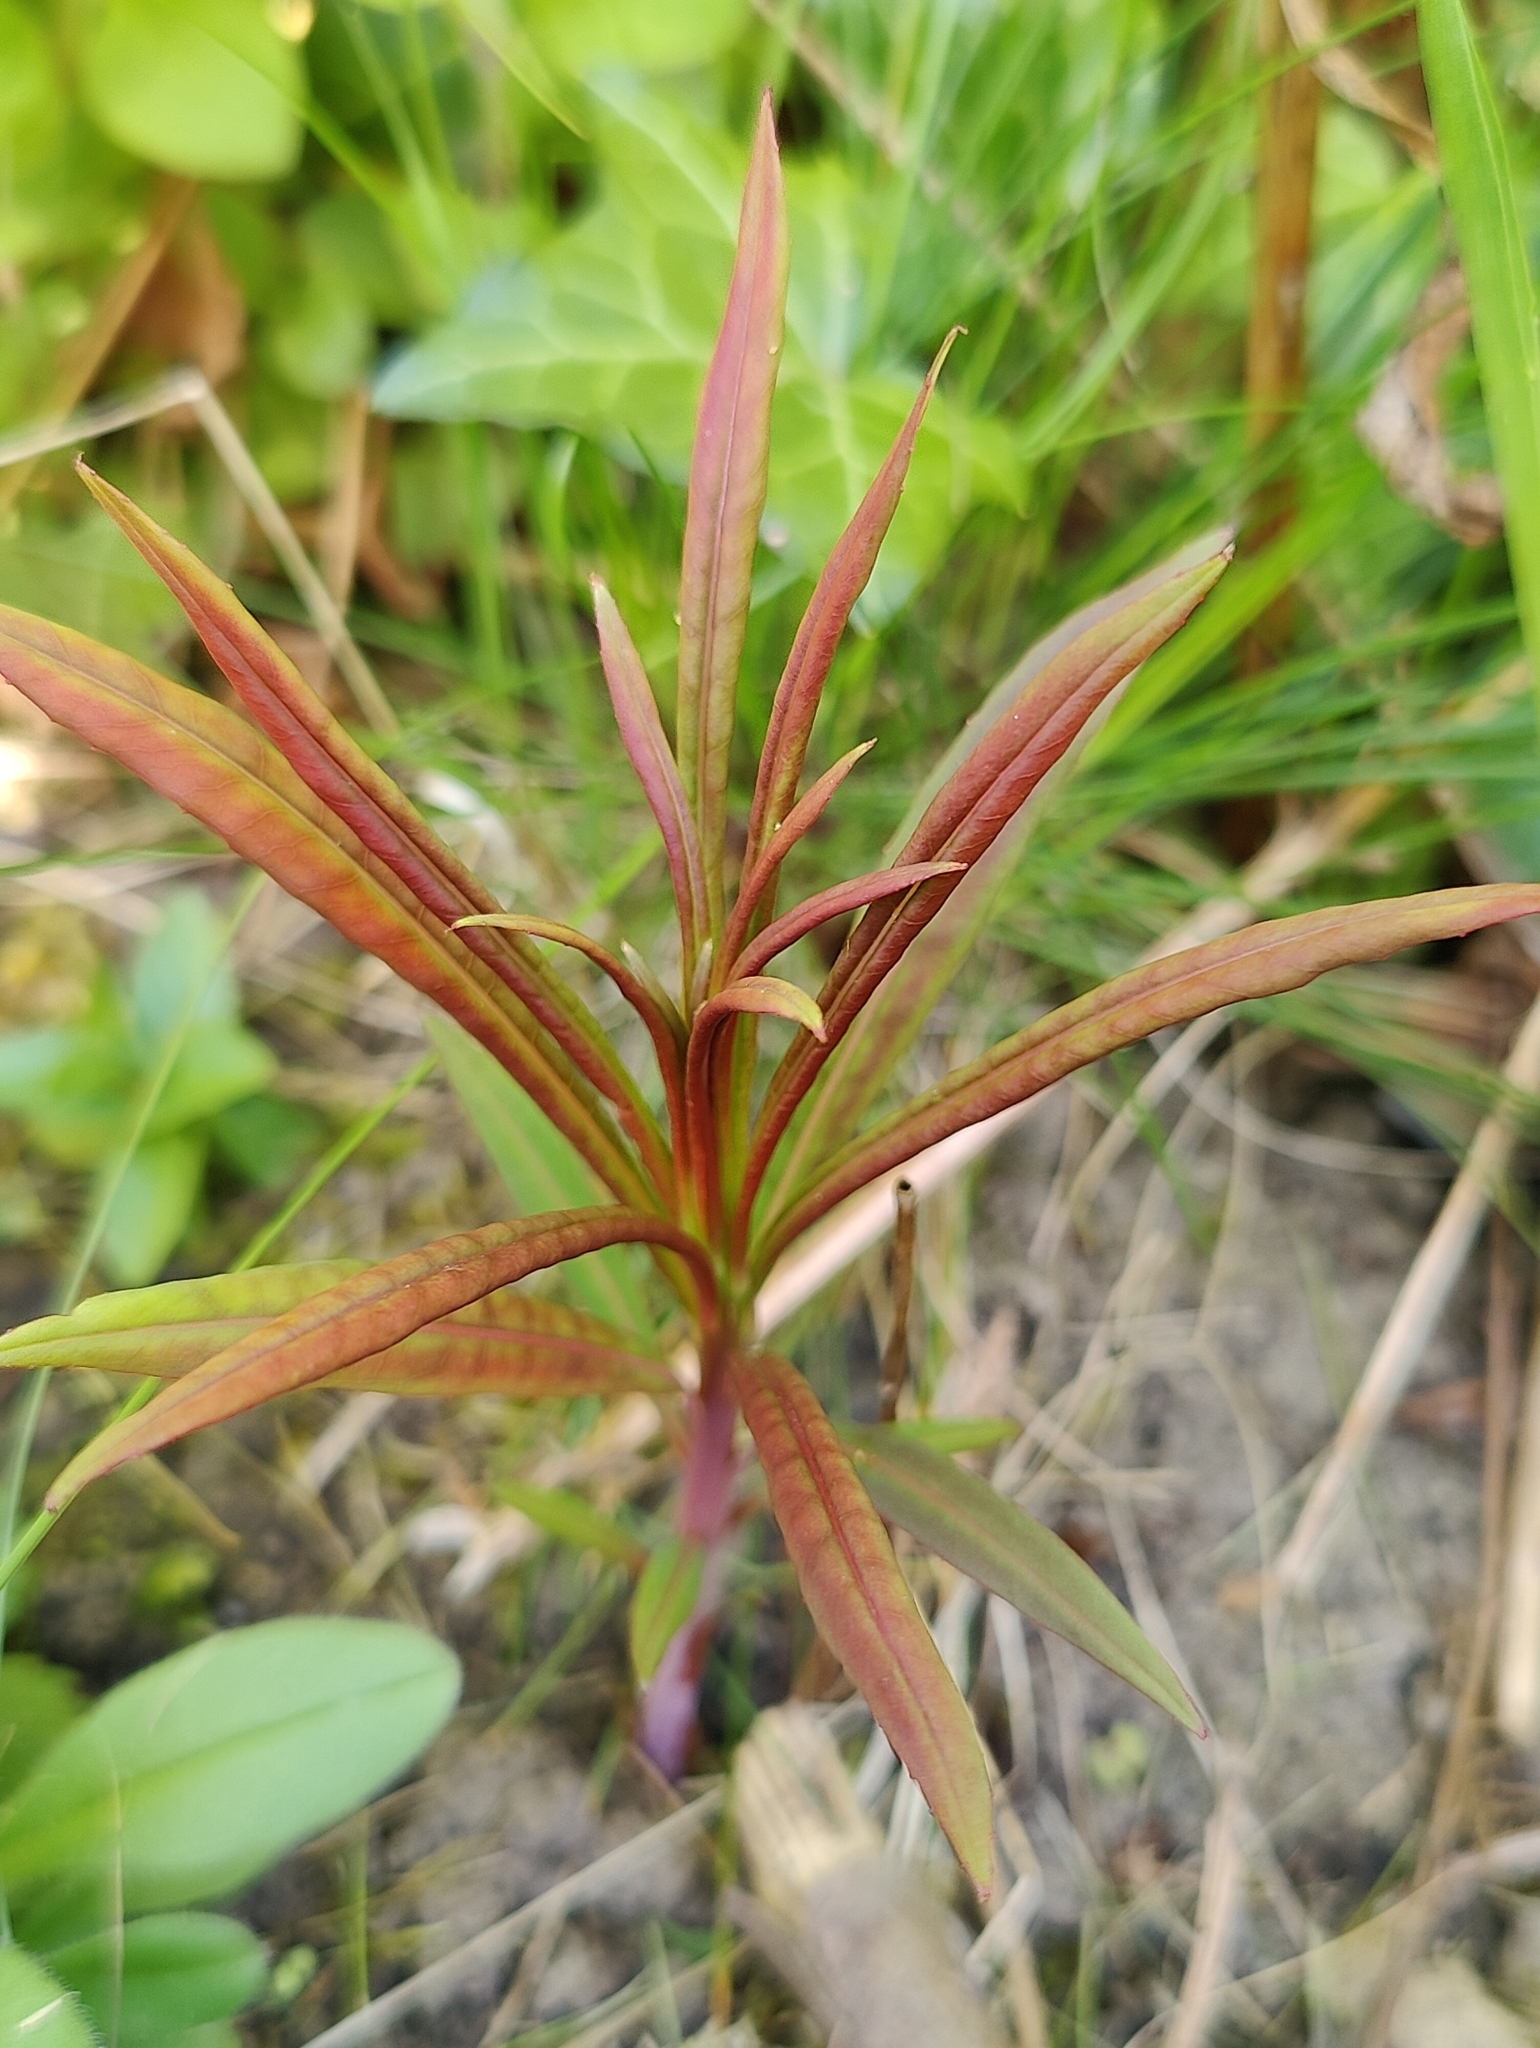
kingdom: Plantae
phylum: Tracheophyta
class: Magnoliopsida
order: Myrtales
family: Onagraceae
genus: Chamaenerion
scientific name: Chamaenerion angustifolium
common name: Fireweed
